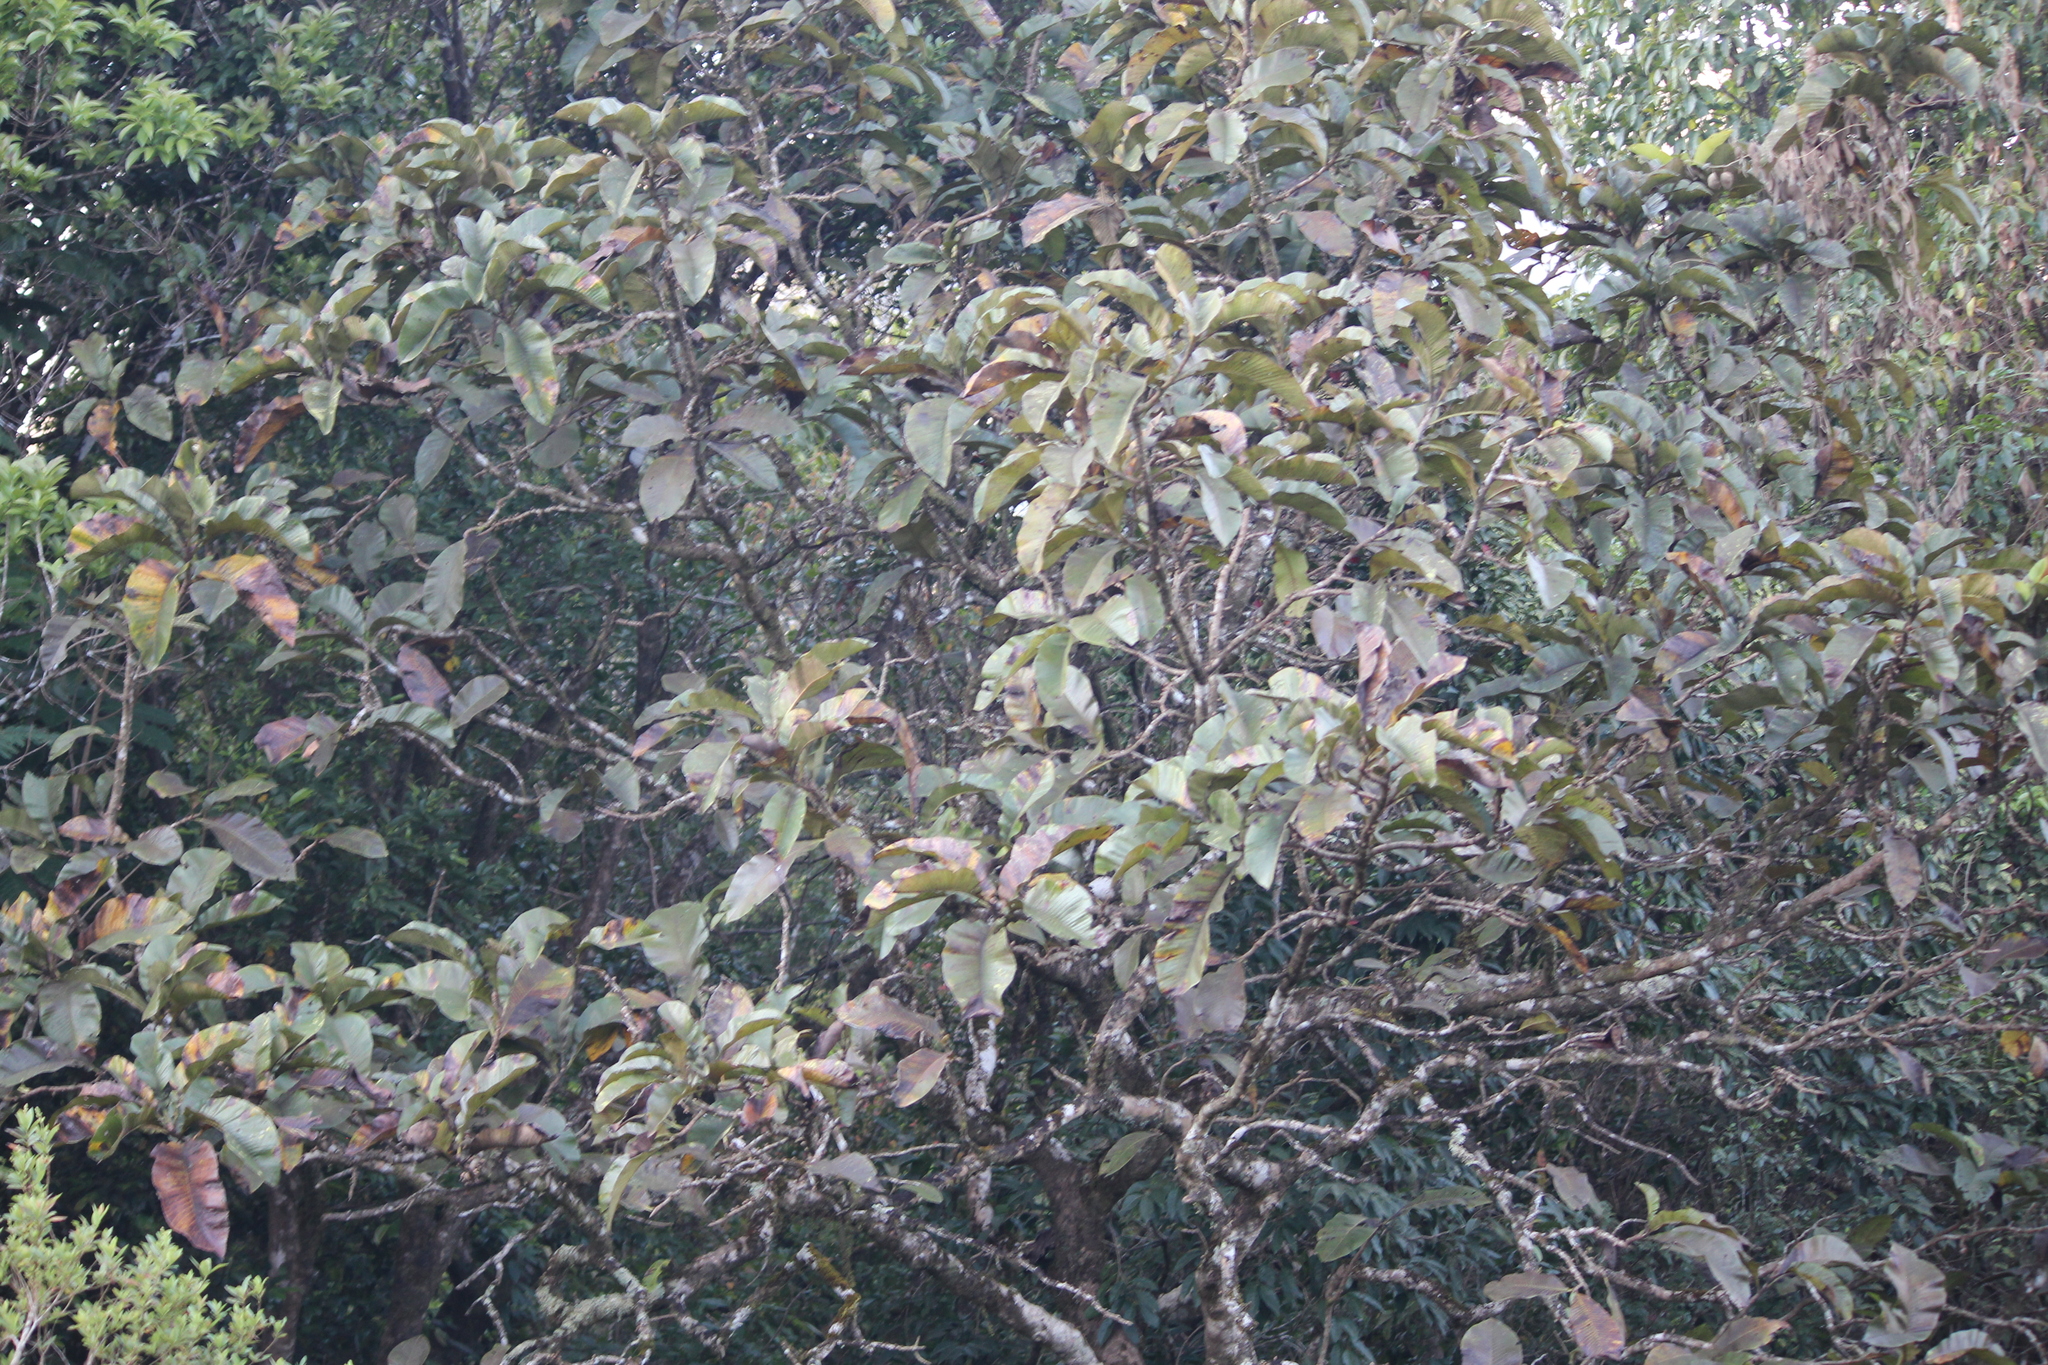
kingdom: Plantae
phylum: Tracheophyta
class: Magnoliopsida
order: Dilleniales
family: Dilleniaceae
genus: Dillenia
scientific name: Dillenia pentagyna
